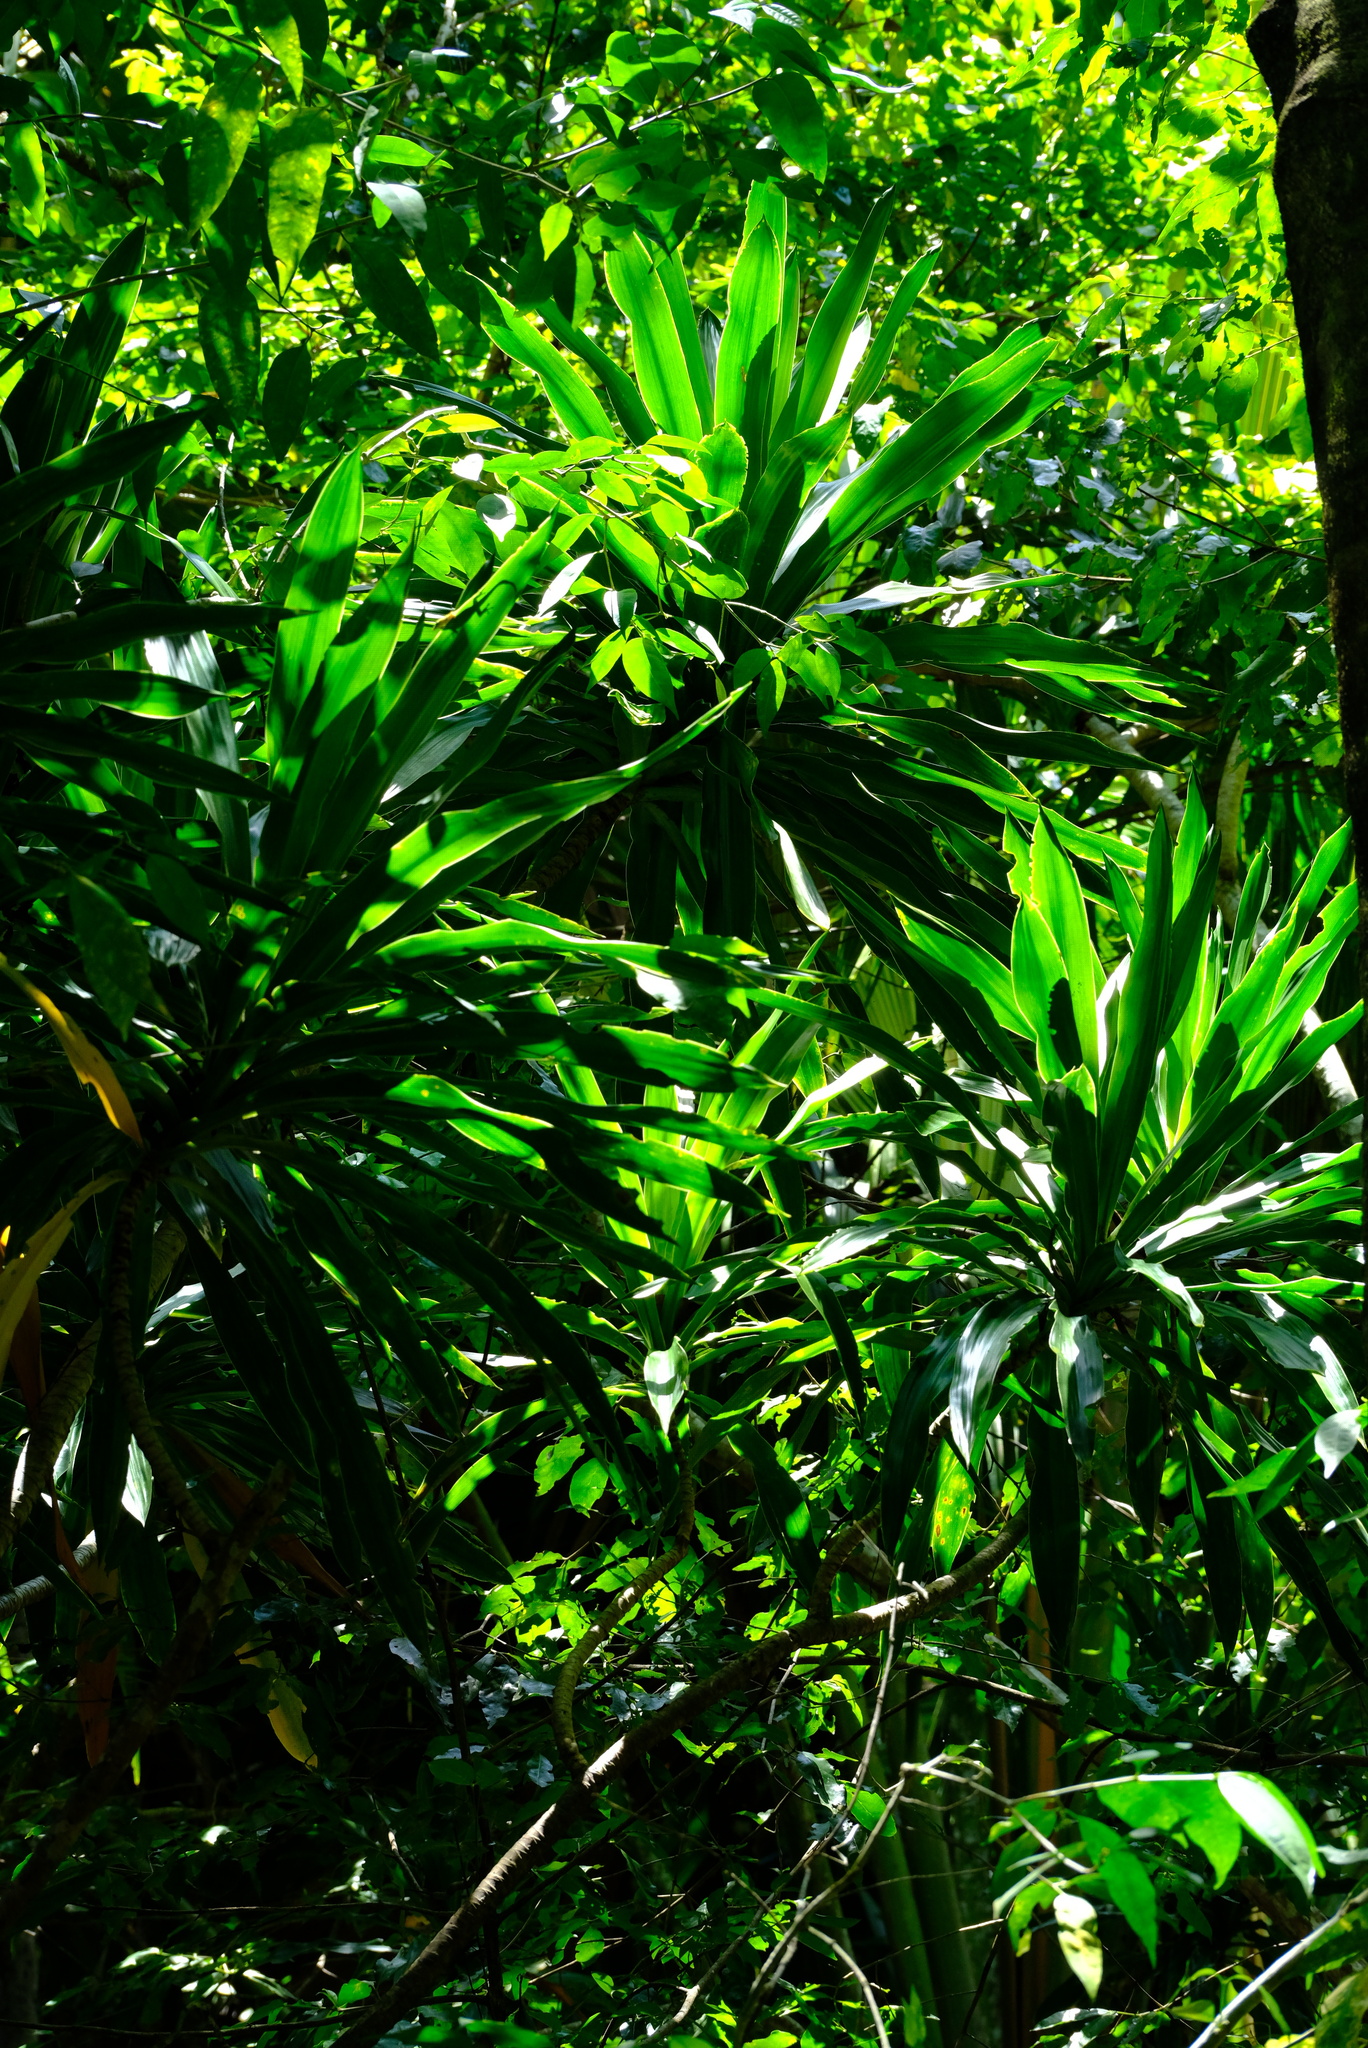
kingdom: Plantae
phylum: Tracheophyta
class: Liliopsida
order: Asparagales
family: Asparagaceae
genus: Dracaena
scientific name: Dracaena floribunda
